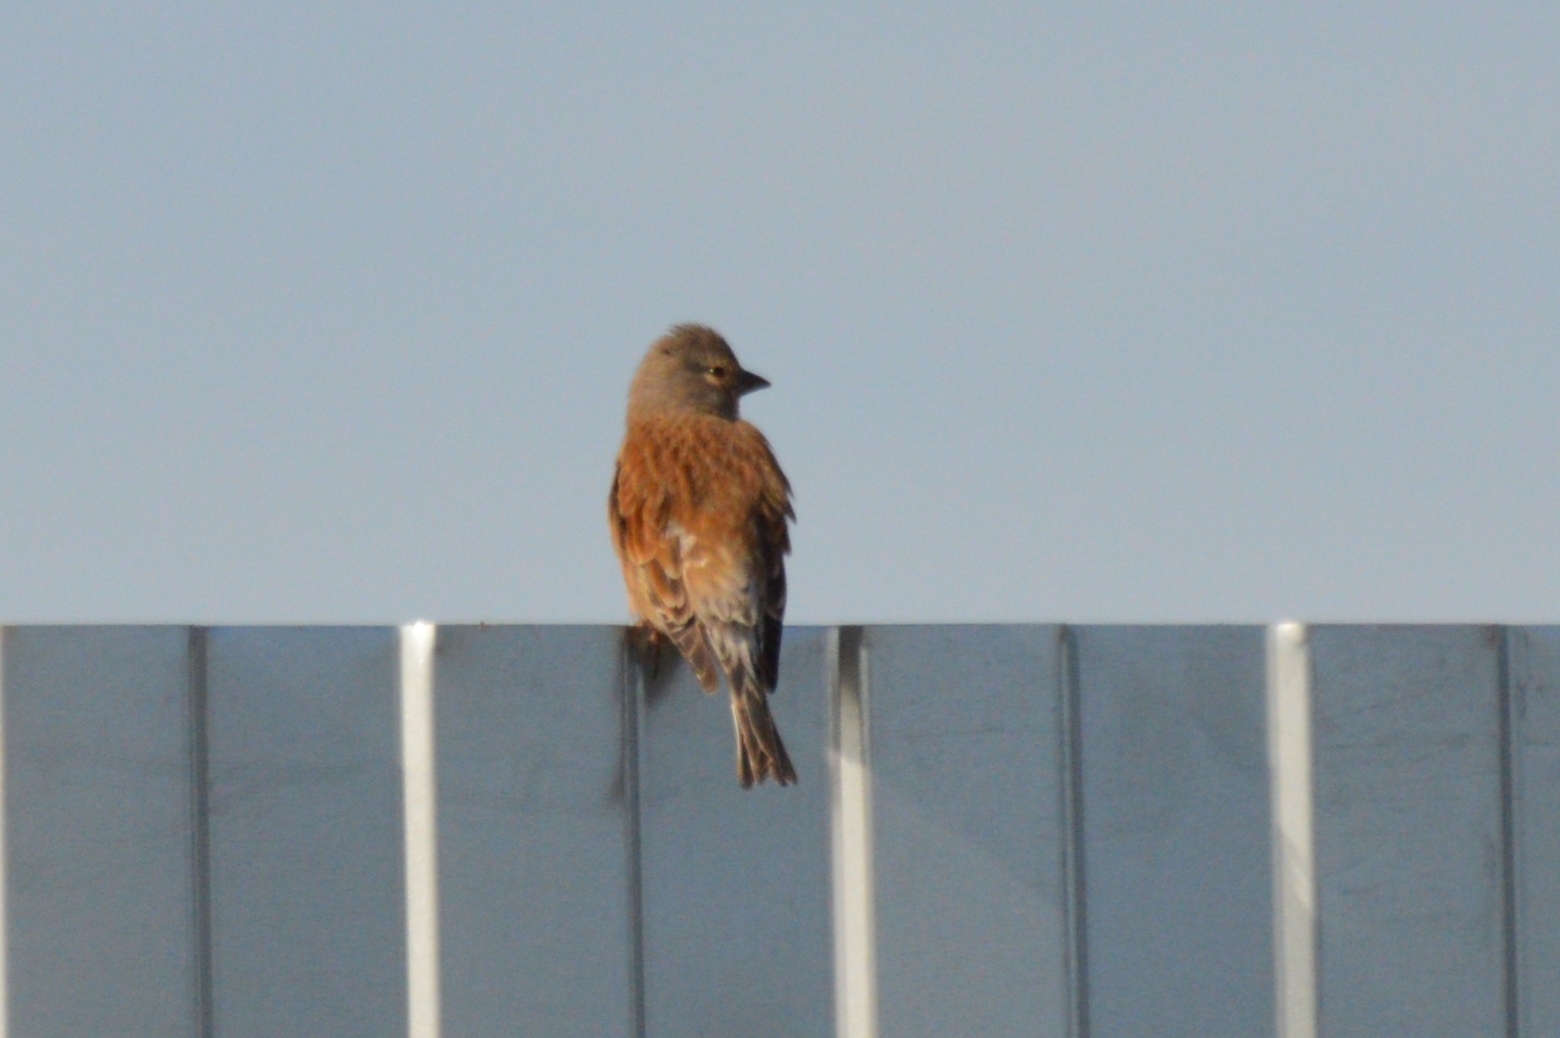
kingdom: Animalia
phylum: Chordata
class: Aves
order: Passeriformes
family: Fringillidae
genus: Linaria
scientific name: Linaria cannabina
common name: Common linnet
